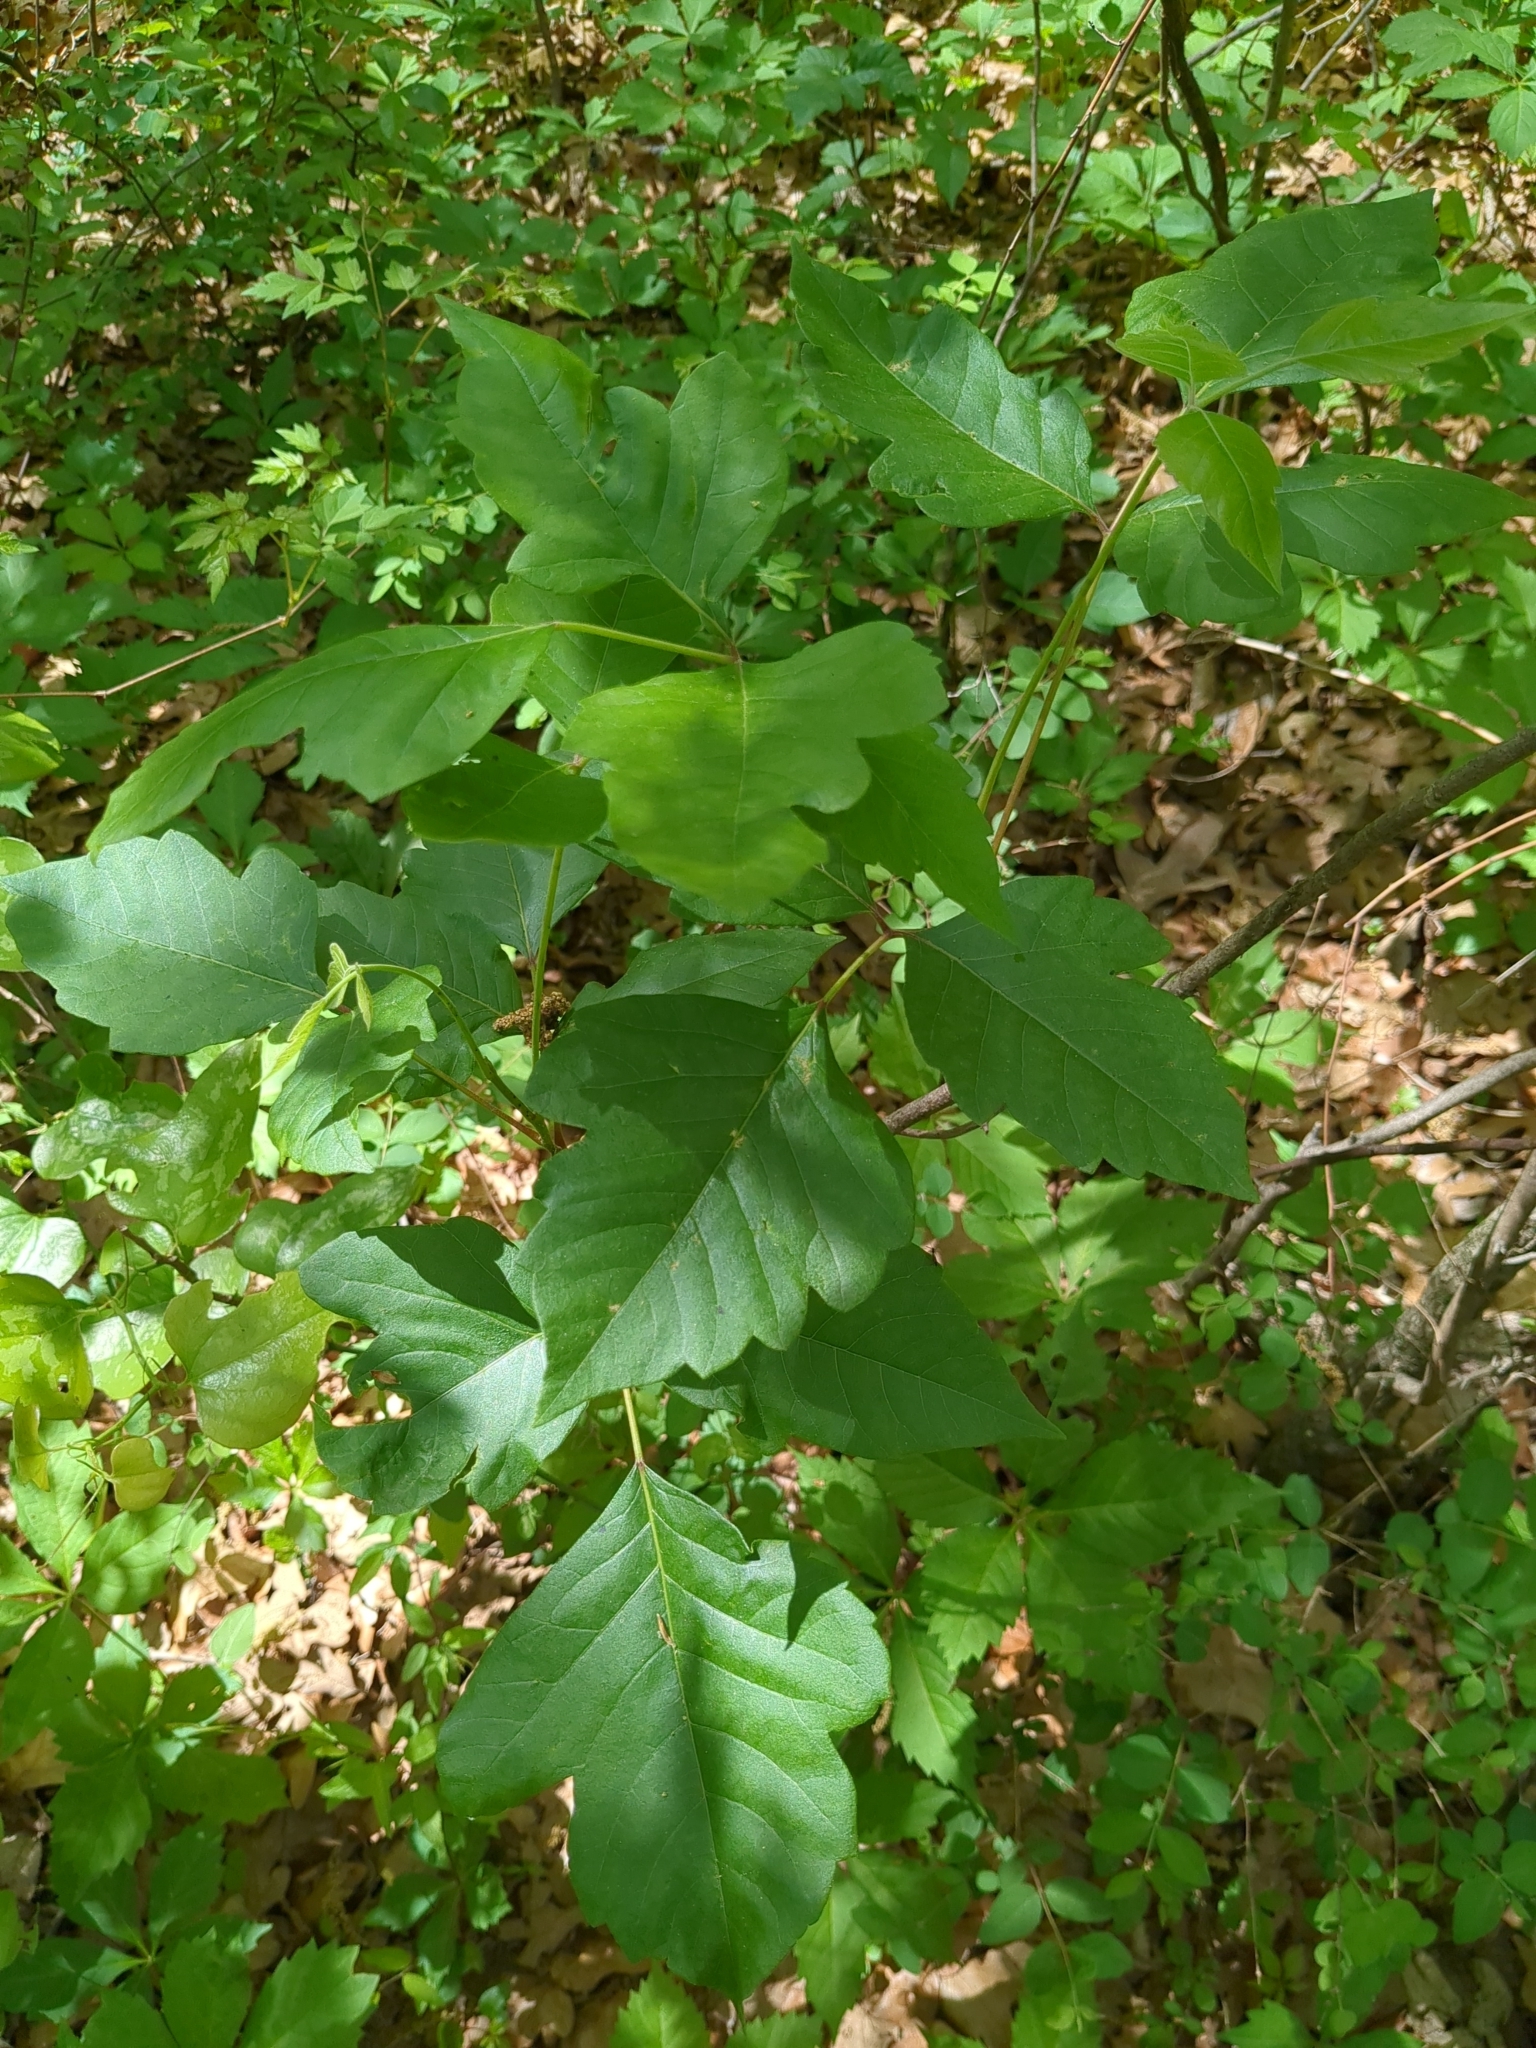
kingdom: Plantae
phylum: Tracheophyta
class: Magnoliopsida
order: Sapindales
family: Anacardiaceae
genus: Toxicodendron
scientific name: Toxicodendron radicans
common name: Poison ivy
